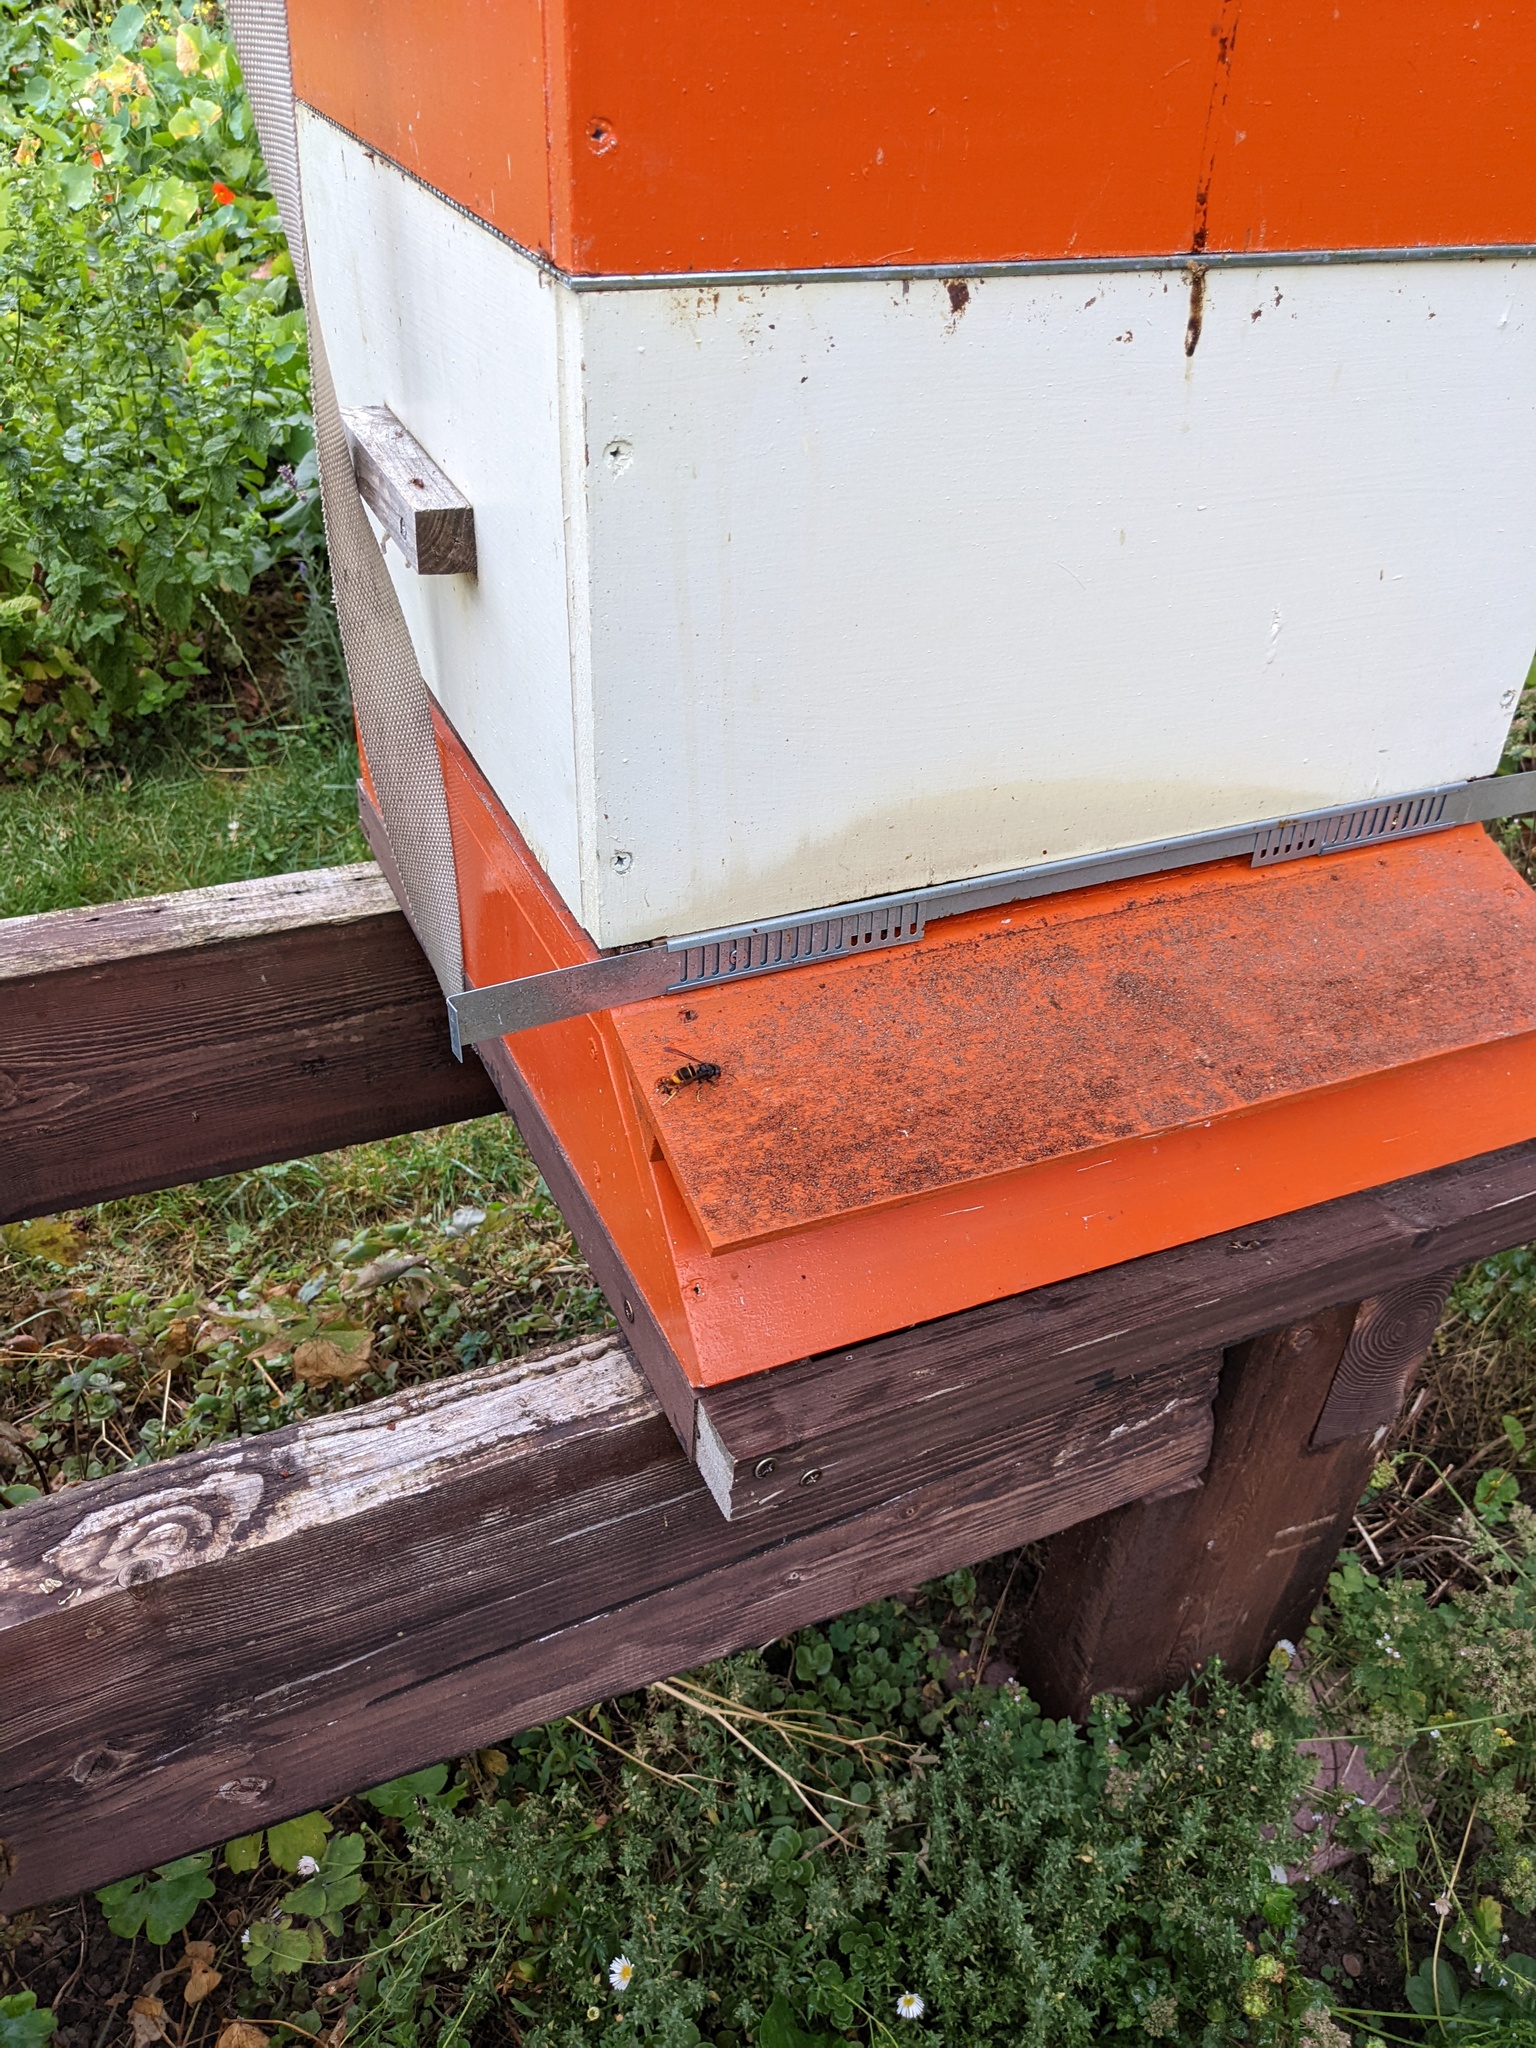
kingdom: Animalia
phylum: Arthropoda
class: Insecta
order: Hymenoptera
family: Vespidae
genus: Vespa
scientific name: Vespa velutina
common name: Asian hornet
